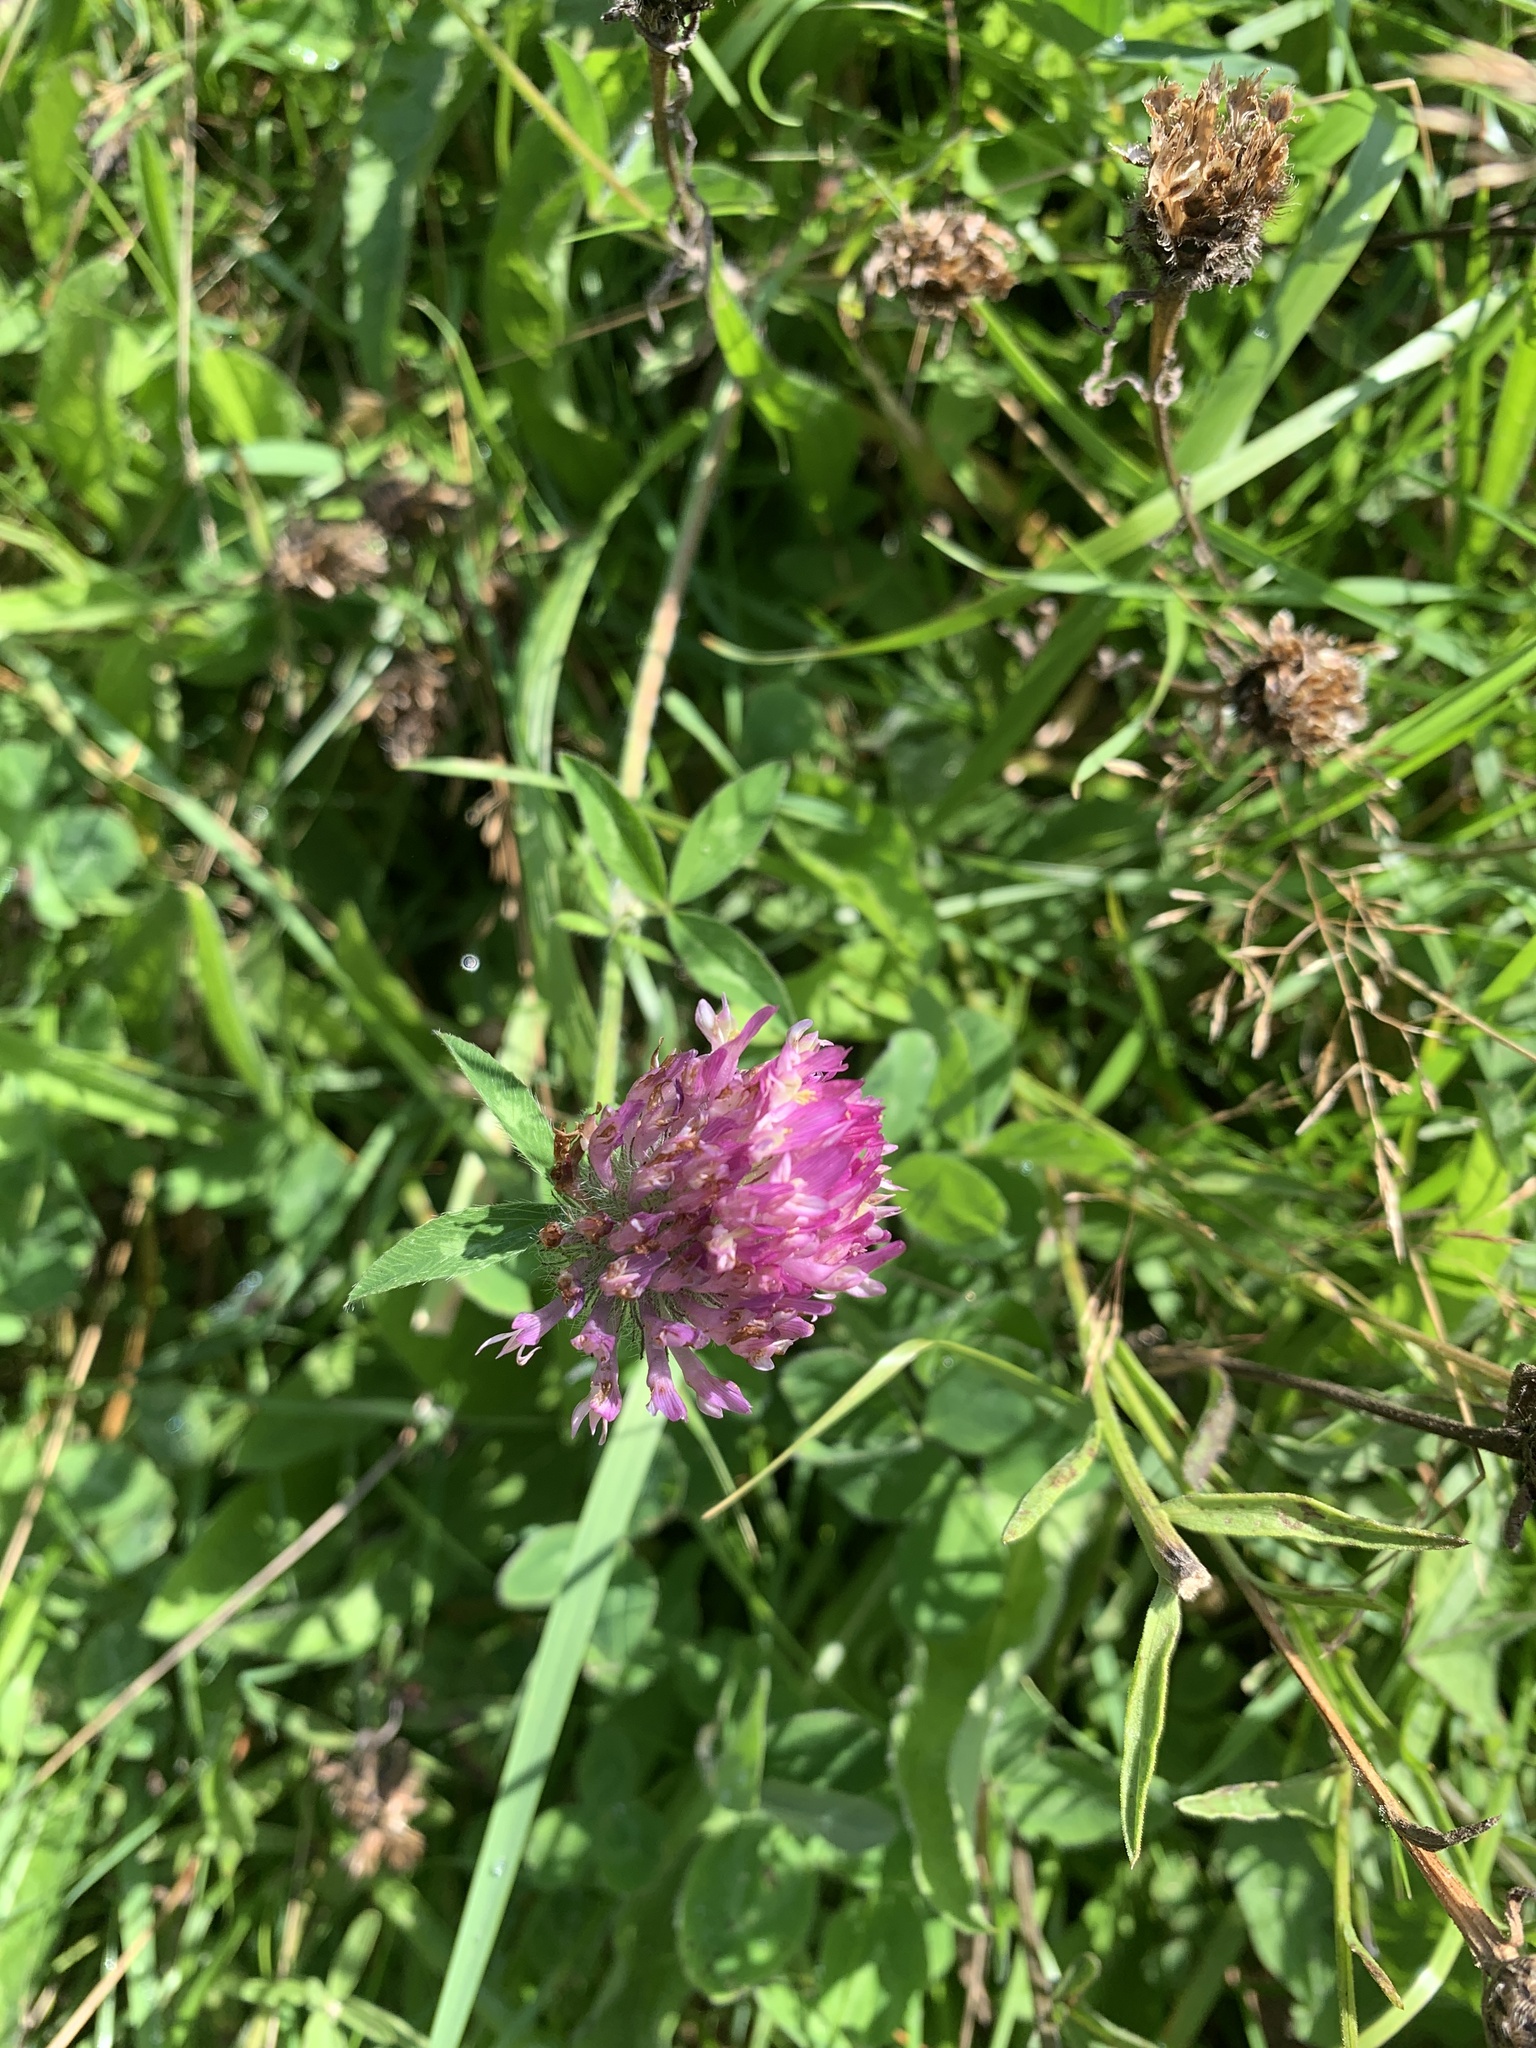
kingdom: Plantae
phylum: Tracheophyta
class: Magnoliopsida
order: Fabales
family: Fabaceae
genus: Trifolium
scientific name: Trifolium pratense
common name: Red clover
